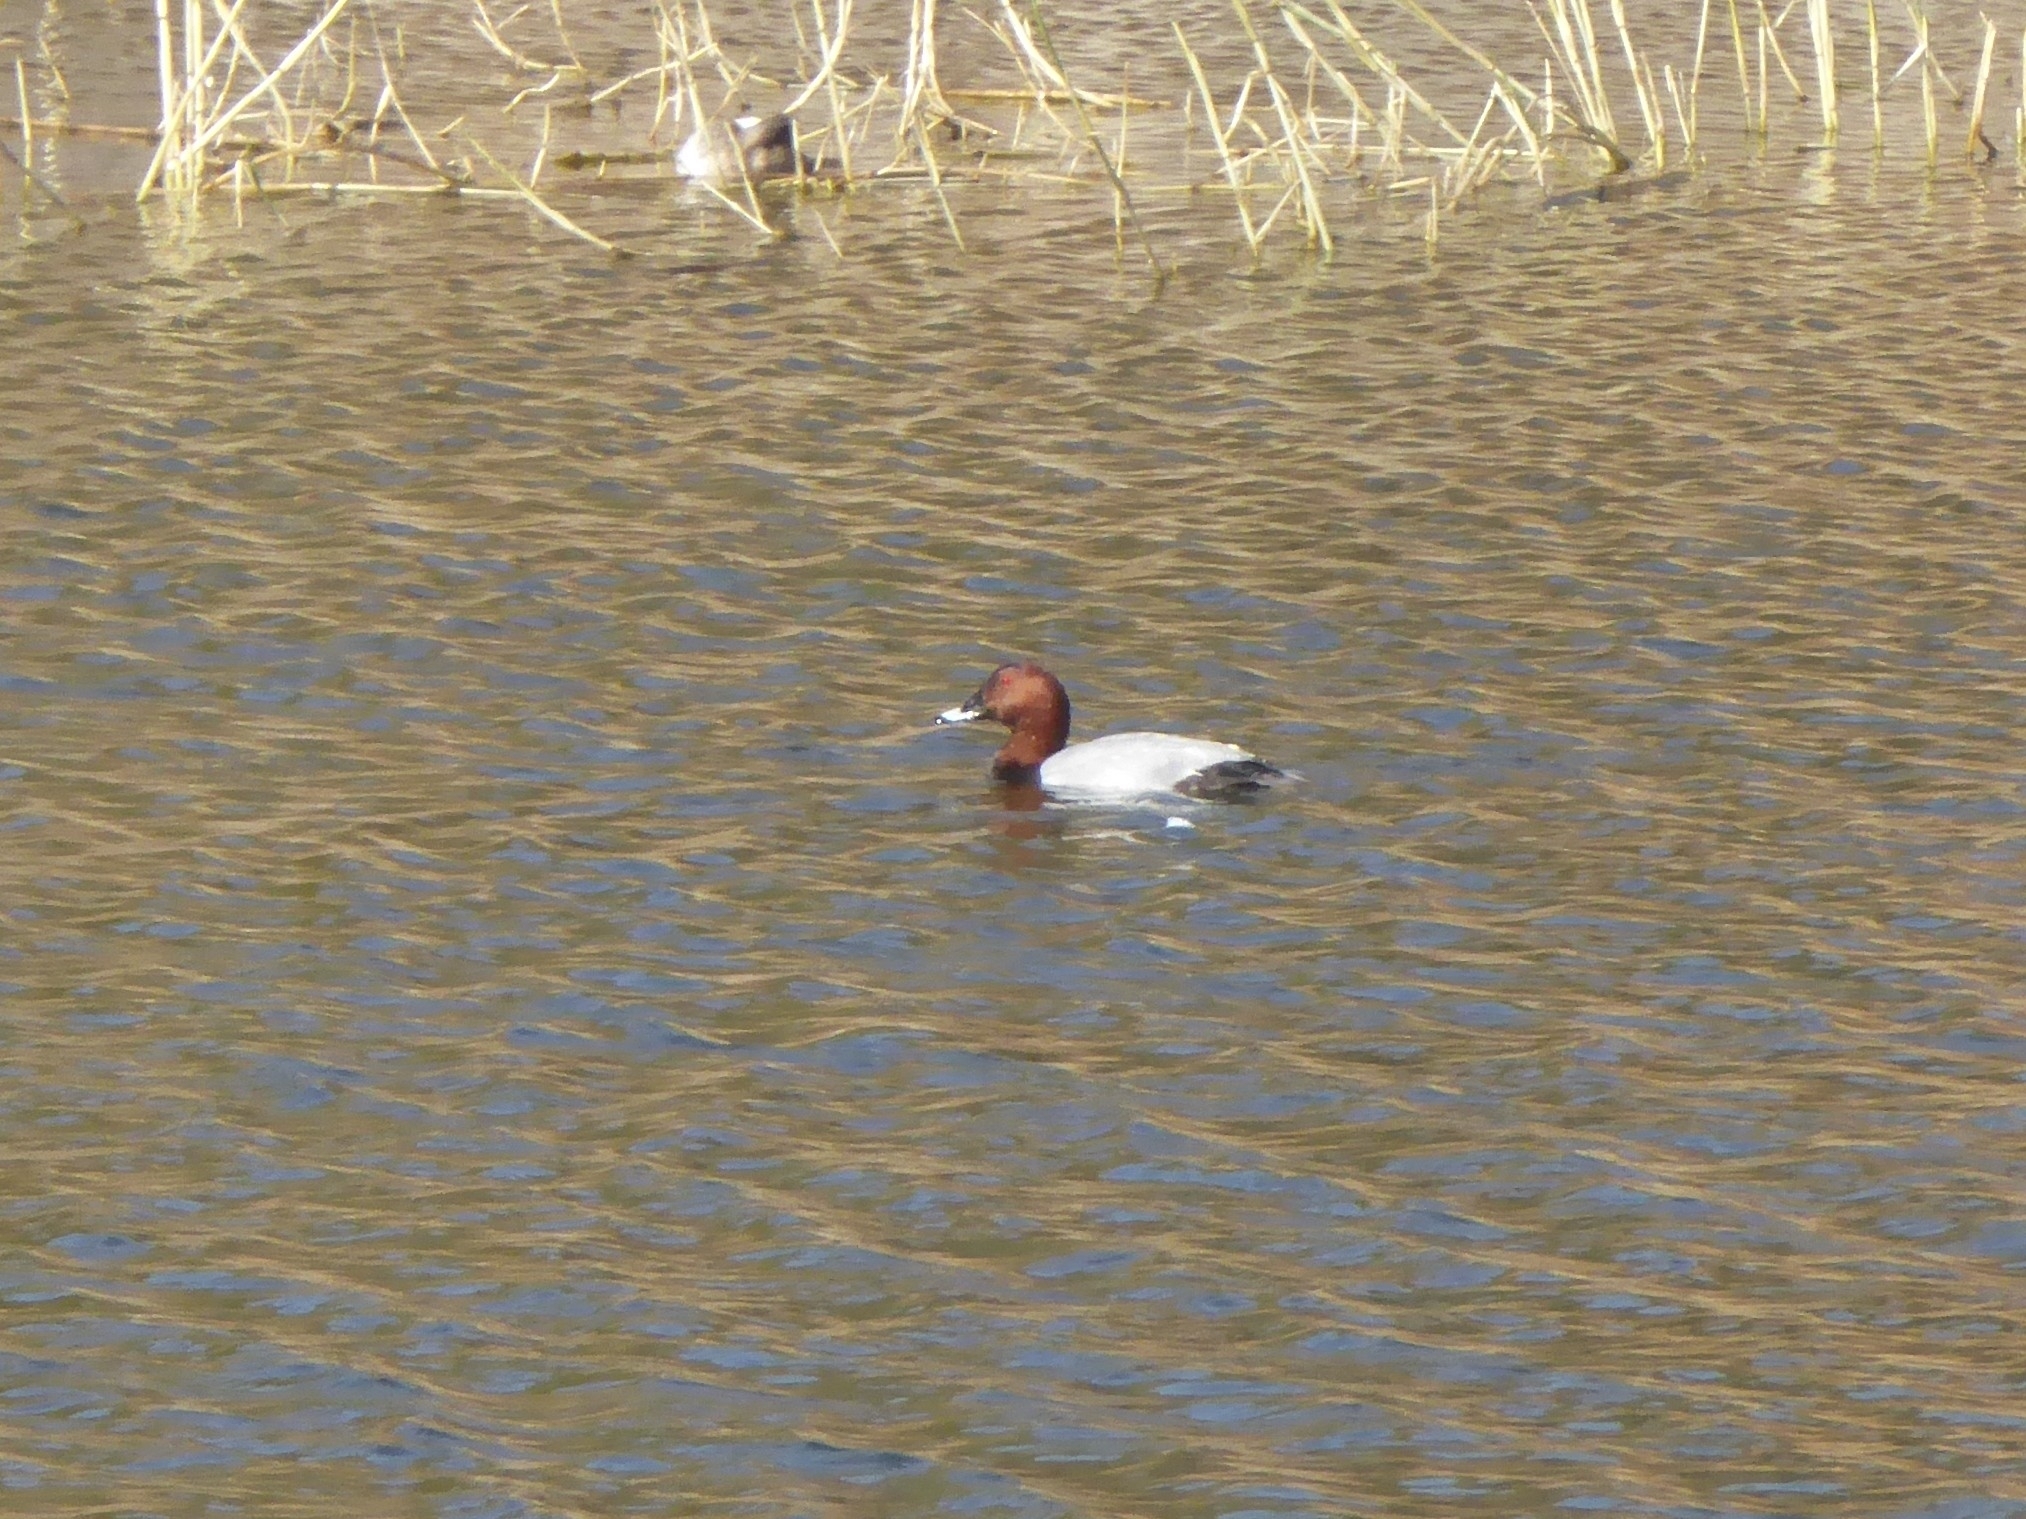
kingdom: Animalia
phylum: Chordata
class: Aves
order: Anseriformes
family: Anatidae
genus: Aythya
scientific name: Aythya ferina
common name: Common pochard
